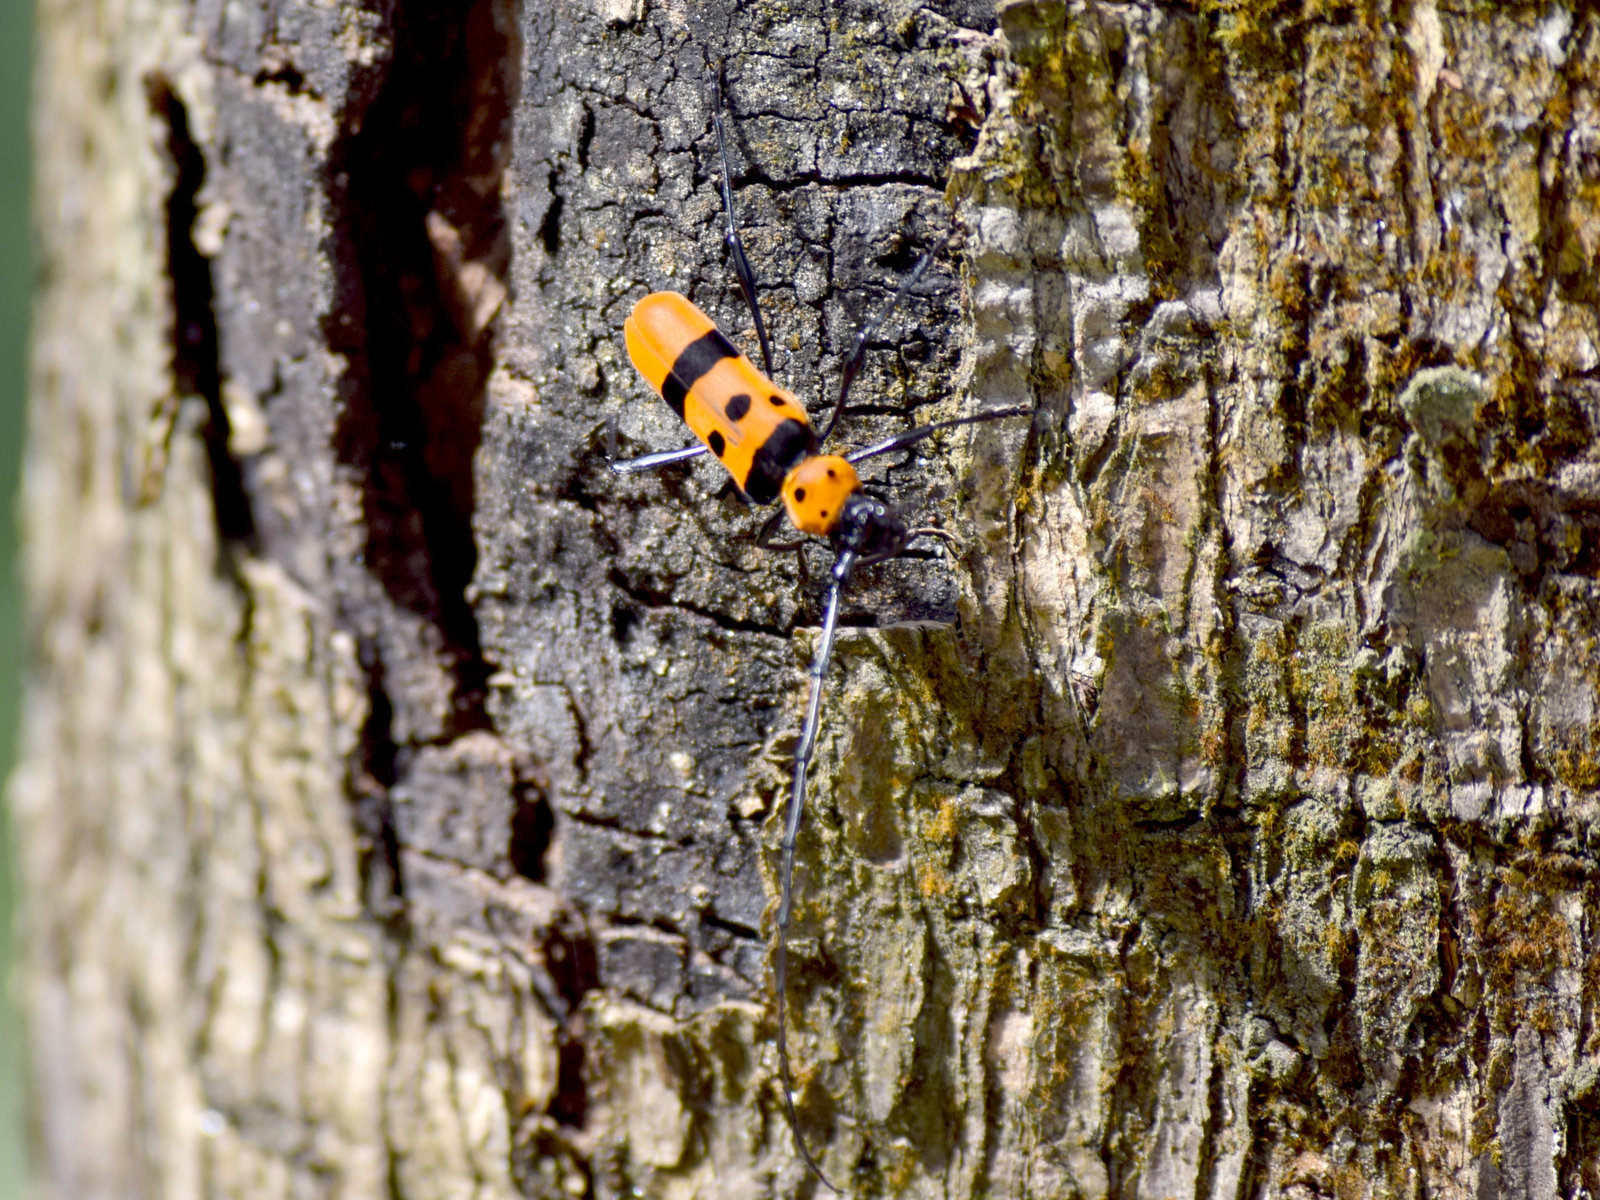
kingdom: Animalia
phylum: Arthropoda
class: Insecta
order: Coleoptera
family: Cerambycidae
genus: Rosalia
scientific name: Rosalia formosa
